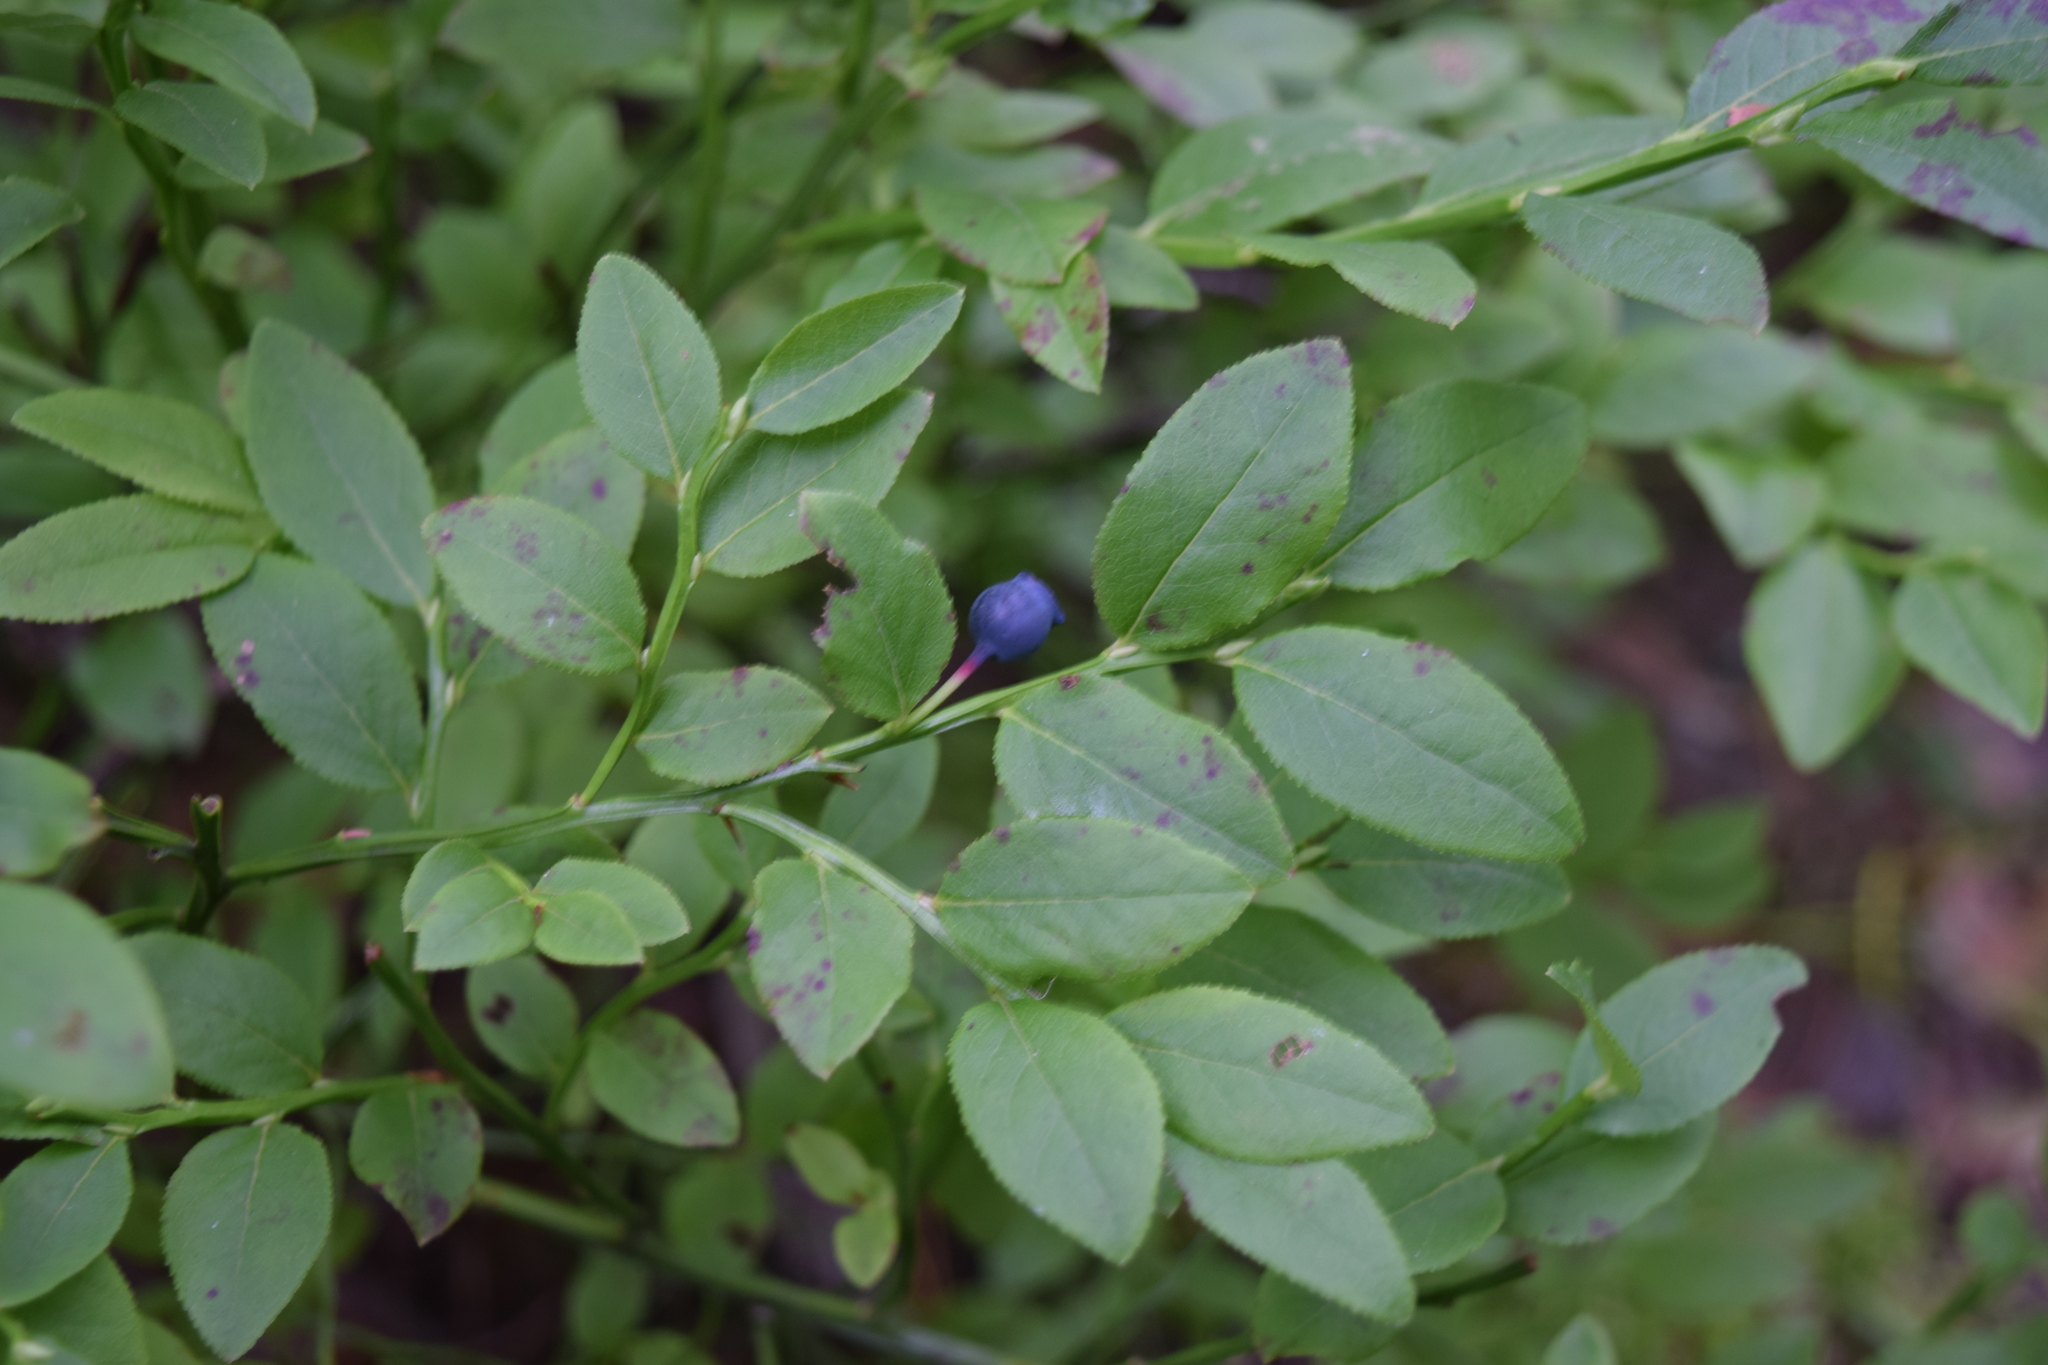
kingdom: Plantae
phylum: Tracheophyta
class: Magnoliopsida
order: Ericales
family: Ericaceae
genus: Vaccinium
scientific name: Vaccinium myrtillus
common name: Bilberry
